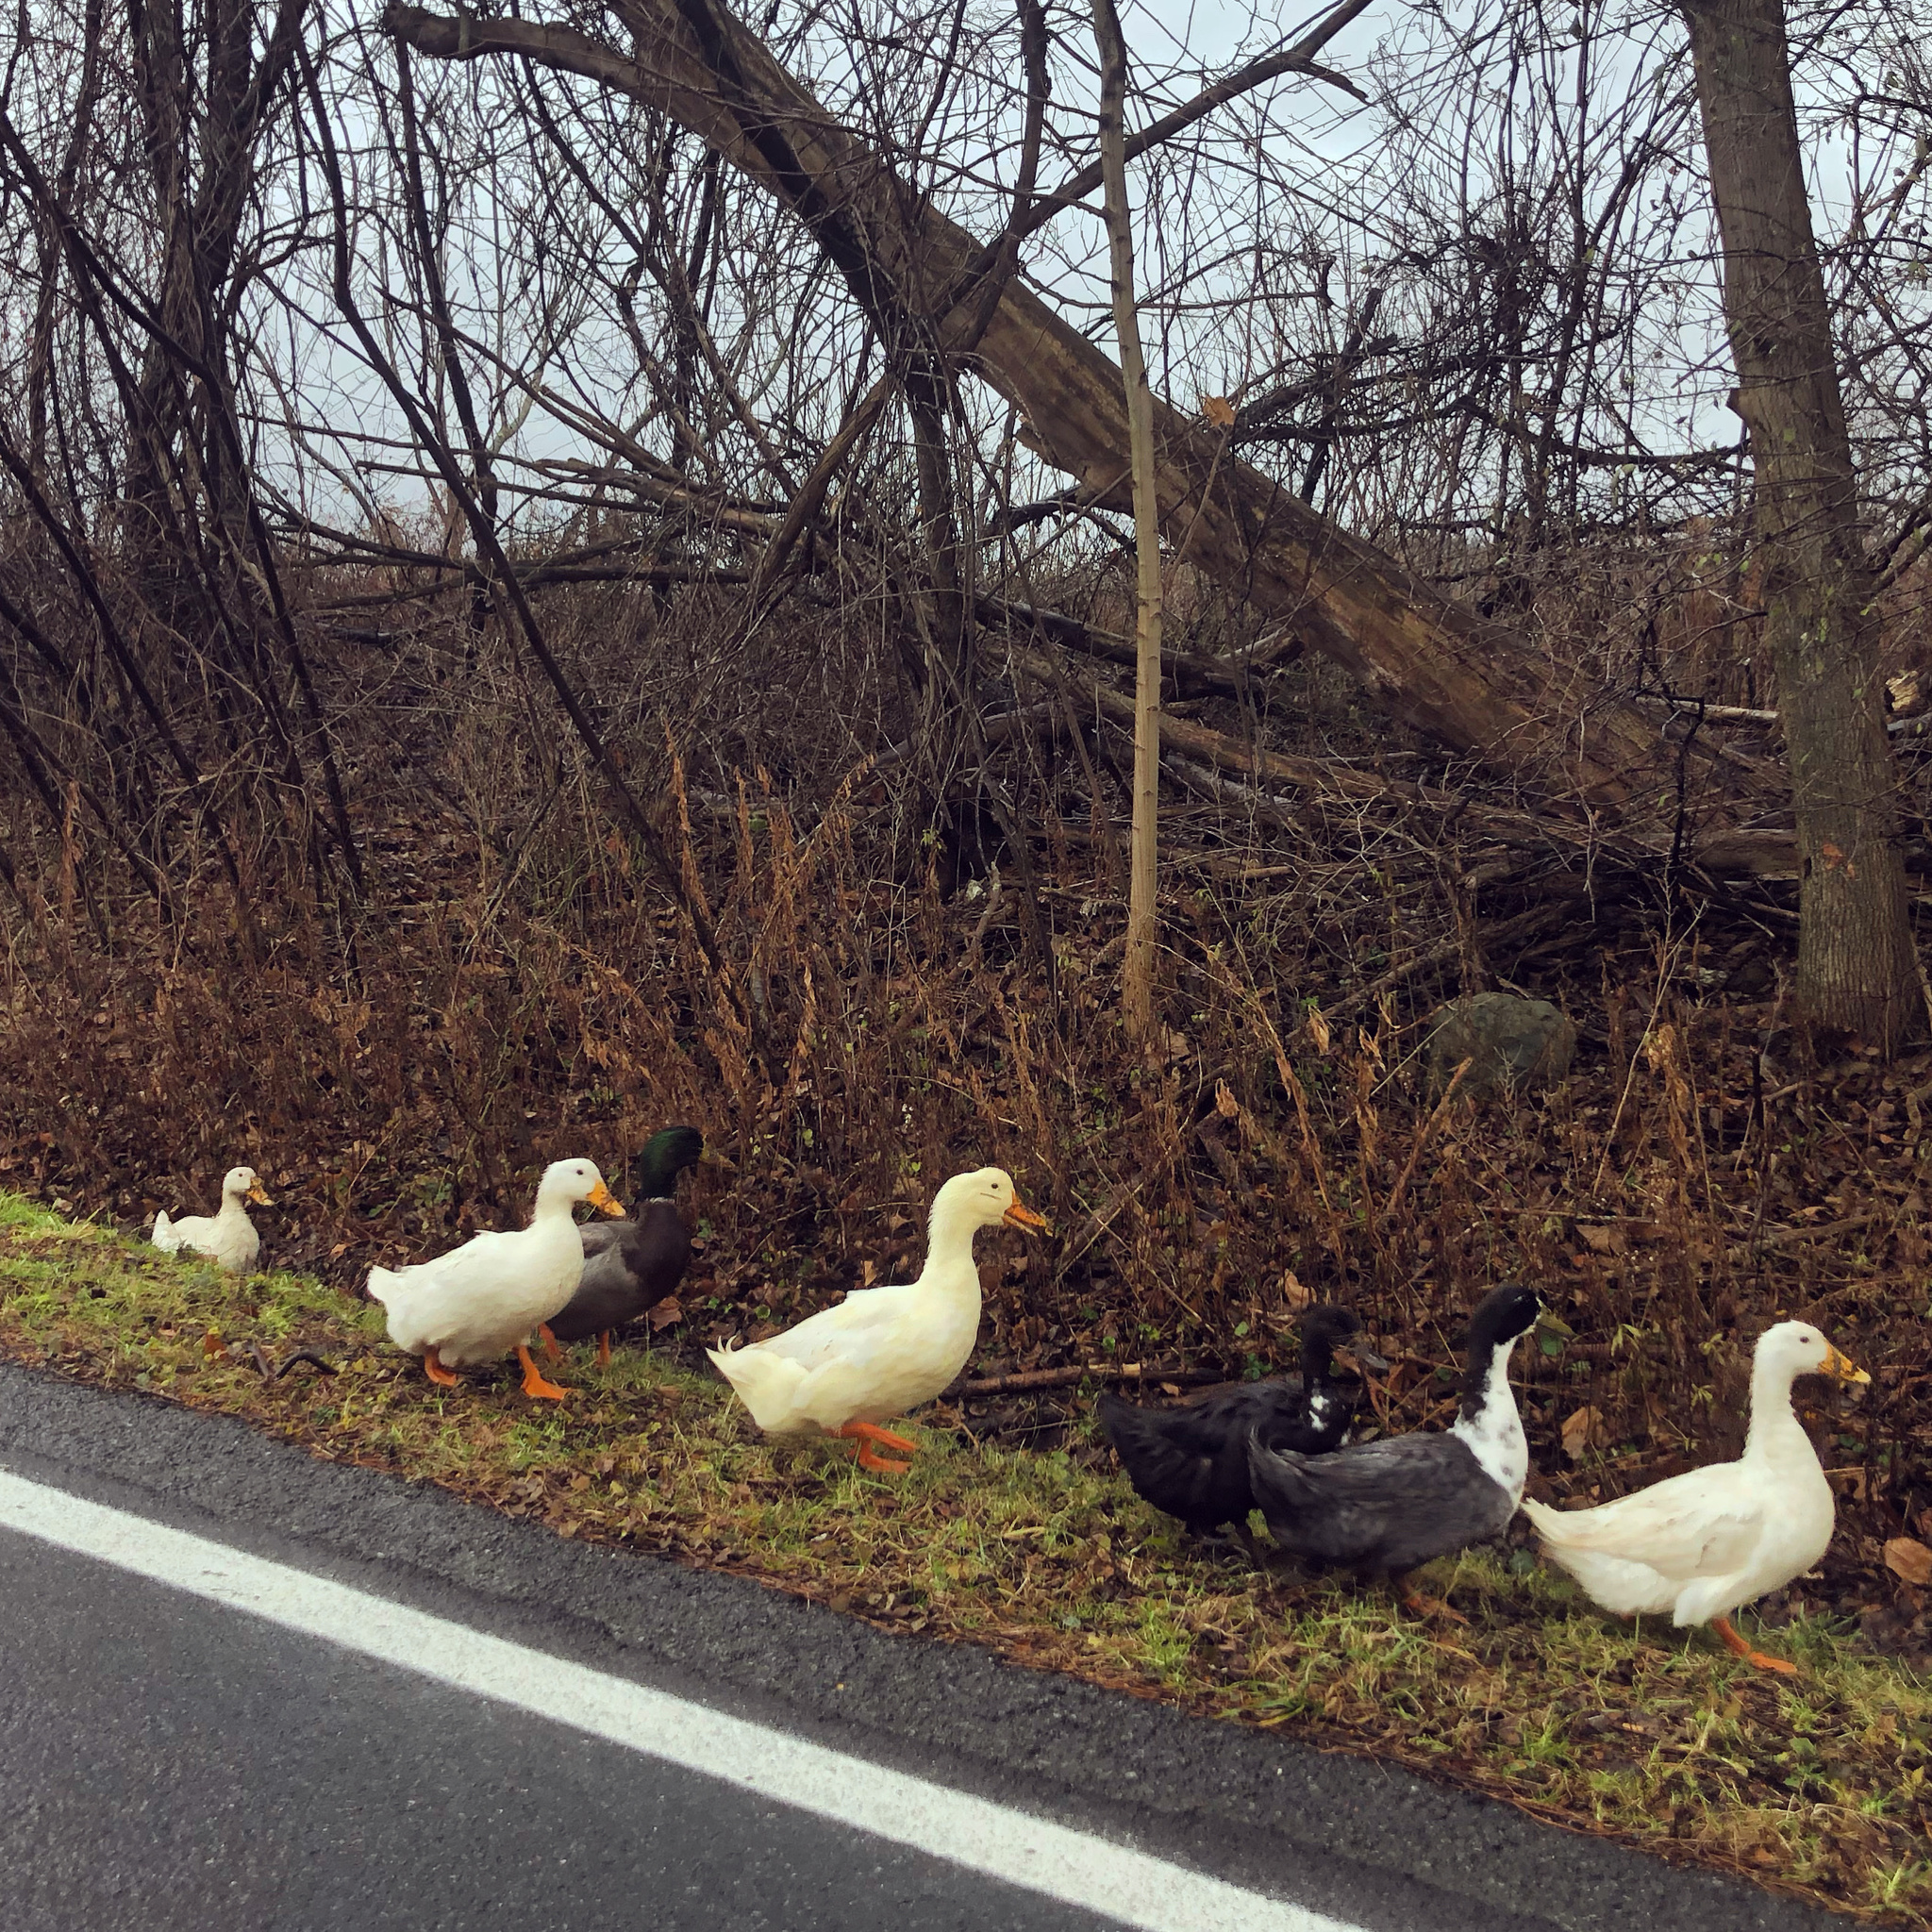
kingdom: Animalia
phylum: Chordata
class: Aves
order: Anseriformes
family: Anatidae
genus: Anas
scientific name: Anas platyrhynchos
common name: Mallard
